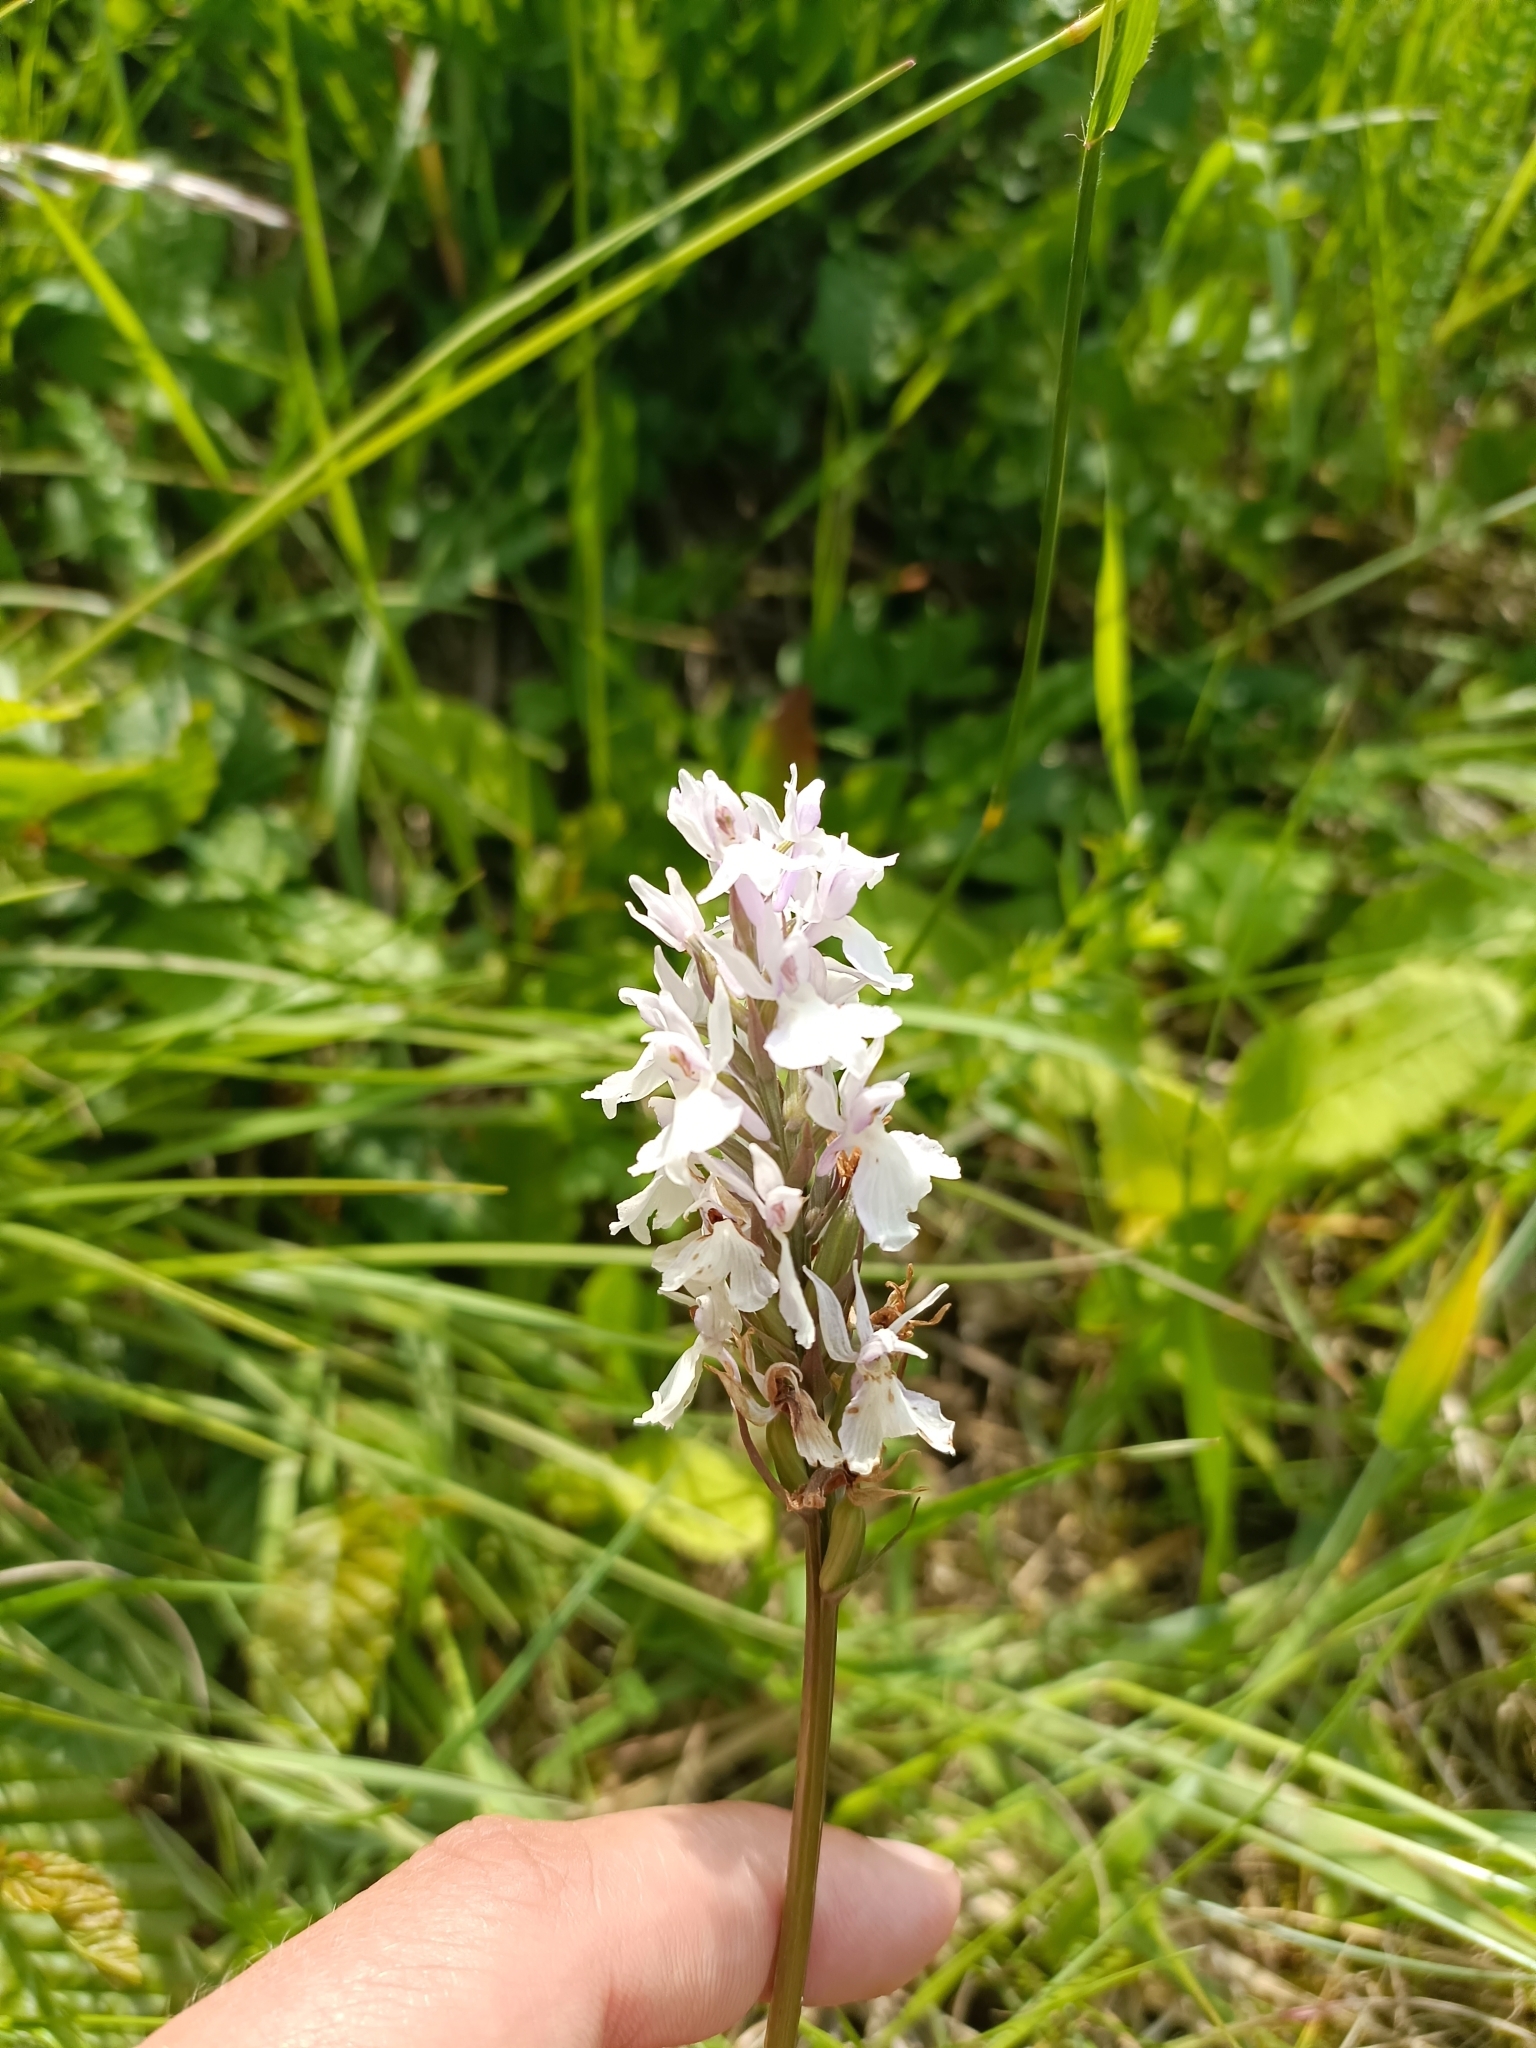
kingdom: Plantae
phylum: Tracheophyta
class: Liliopsida
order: Asparagales
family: Orchidaceae
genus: Dactylorhiza
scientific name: Dactylorhiza maculata
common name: Heath spotted-orchid
